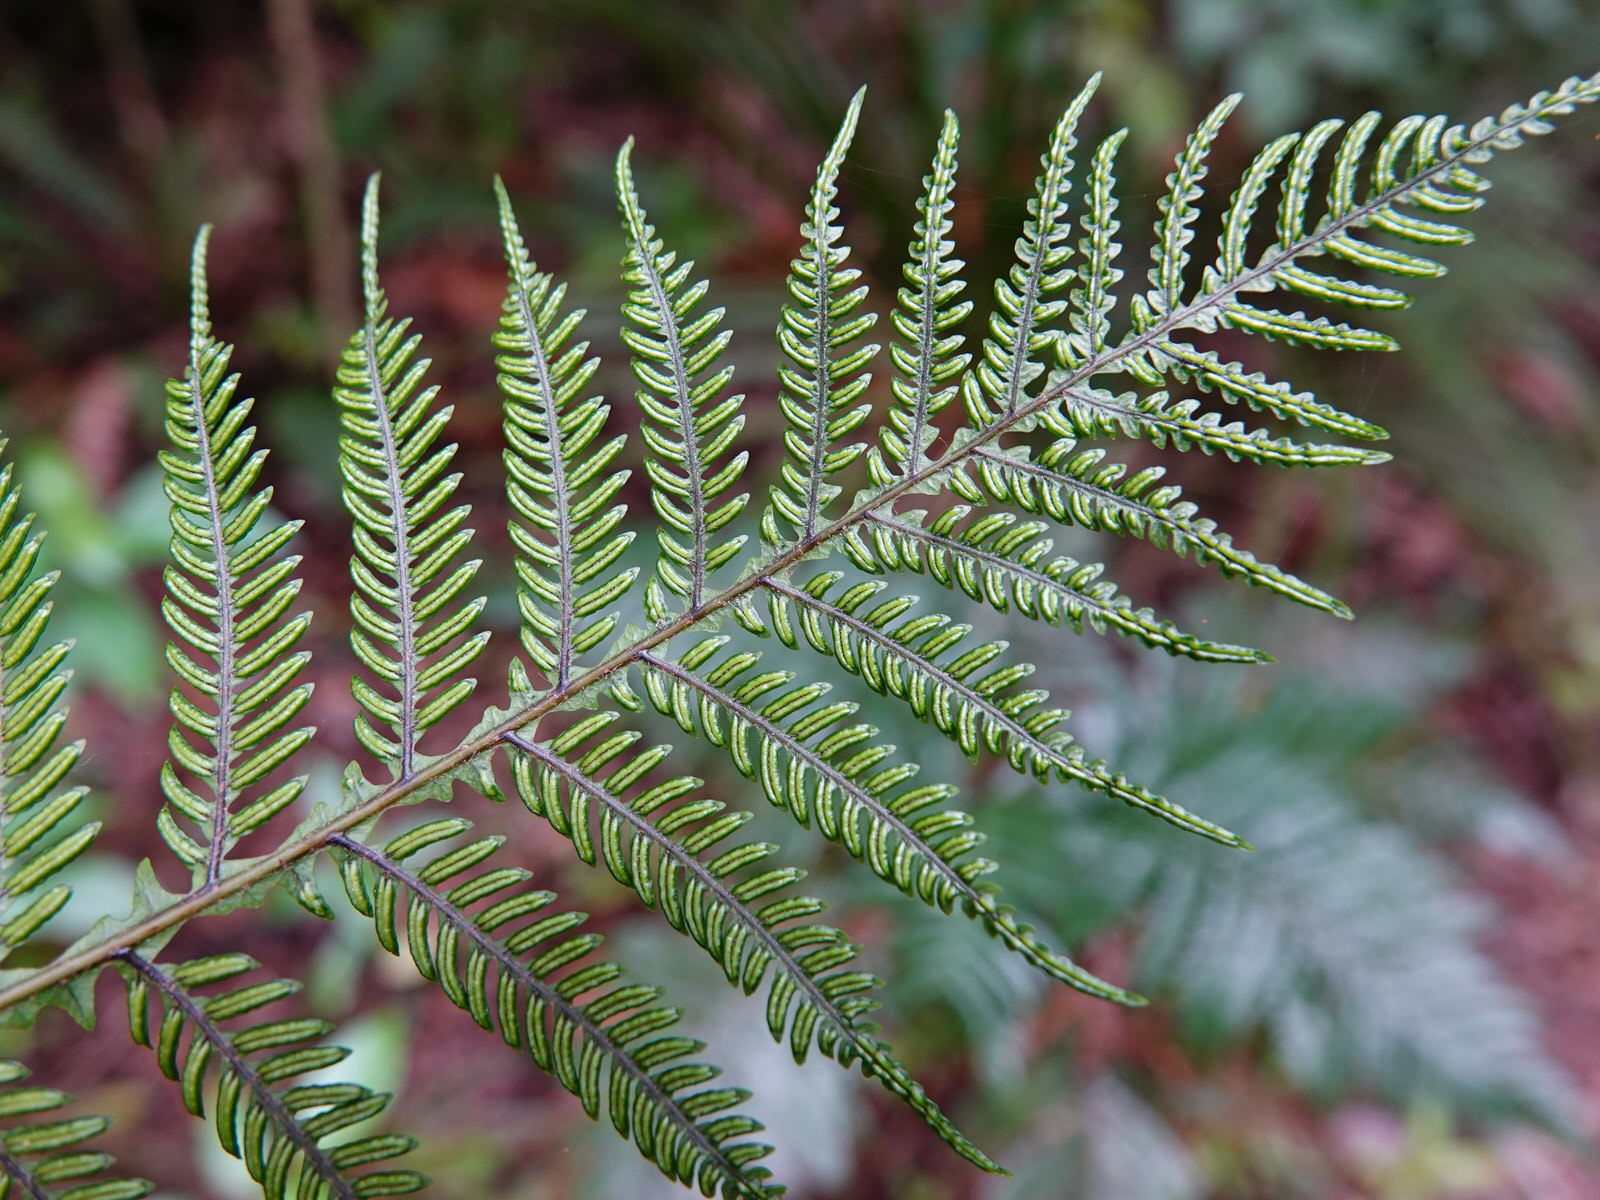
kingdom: Plantae
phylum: Tracheophyta
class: Polypodiopsida
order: Polypodiales
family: Blechnaceae
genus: Diploblechnum
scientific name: Diploblechnum fraseri
